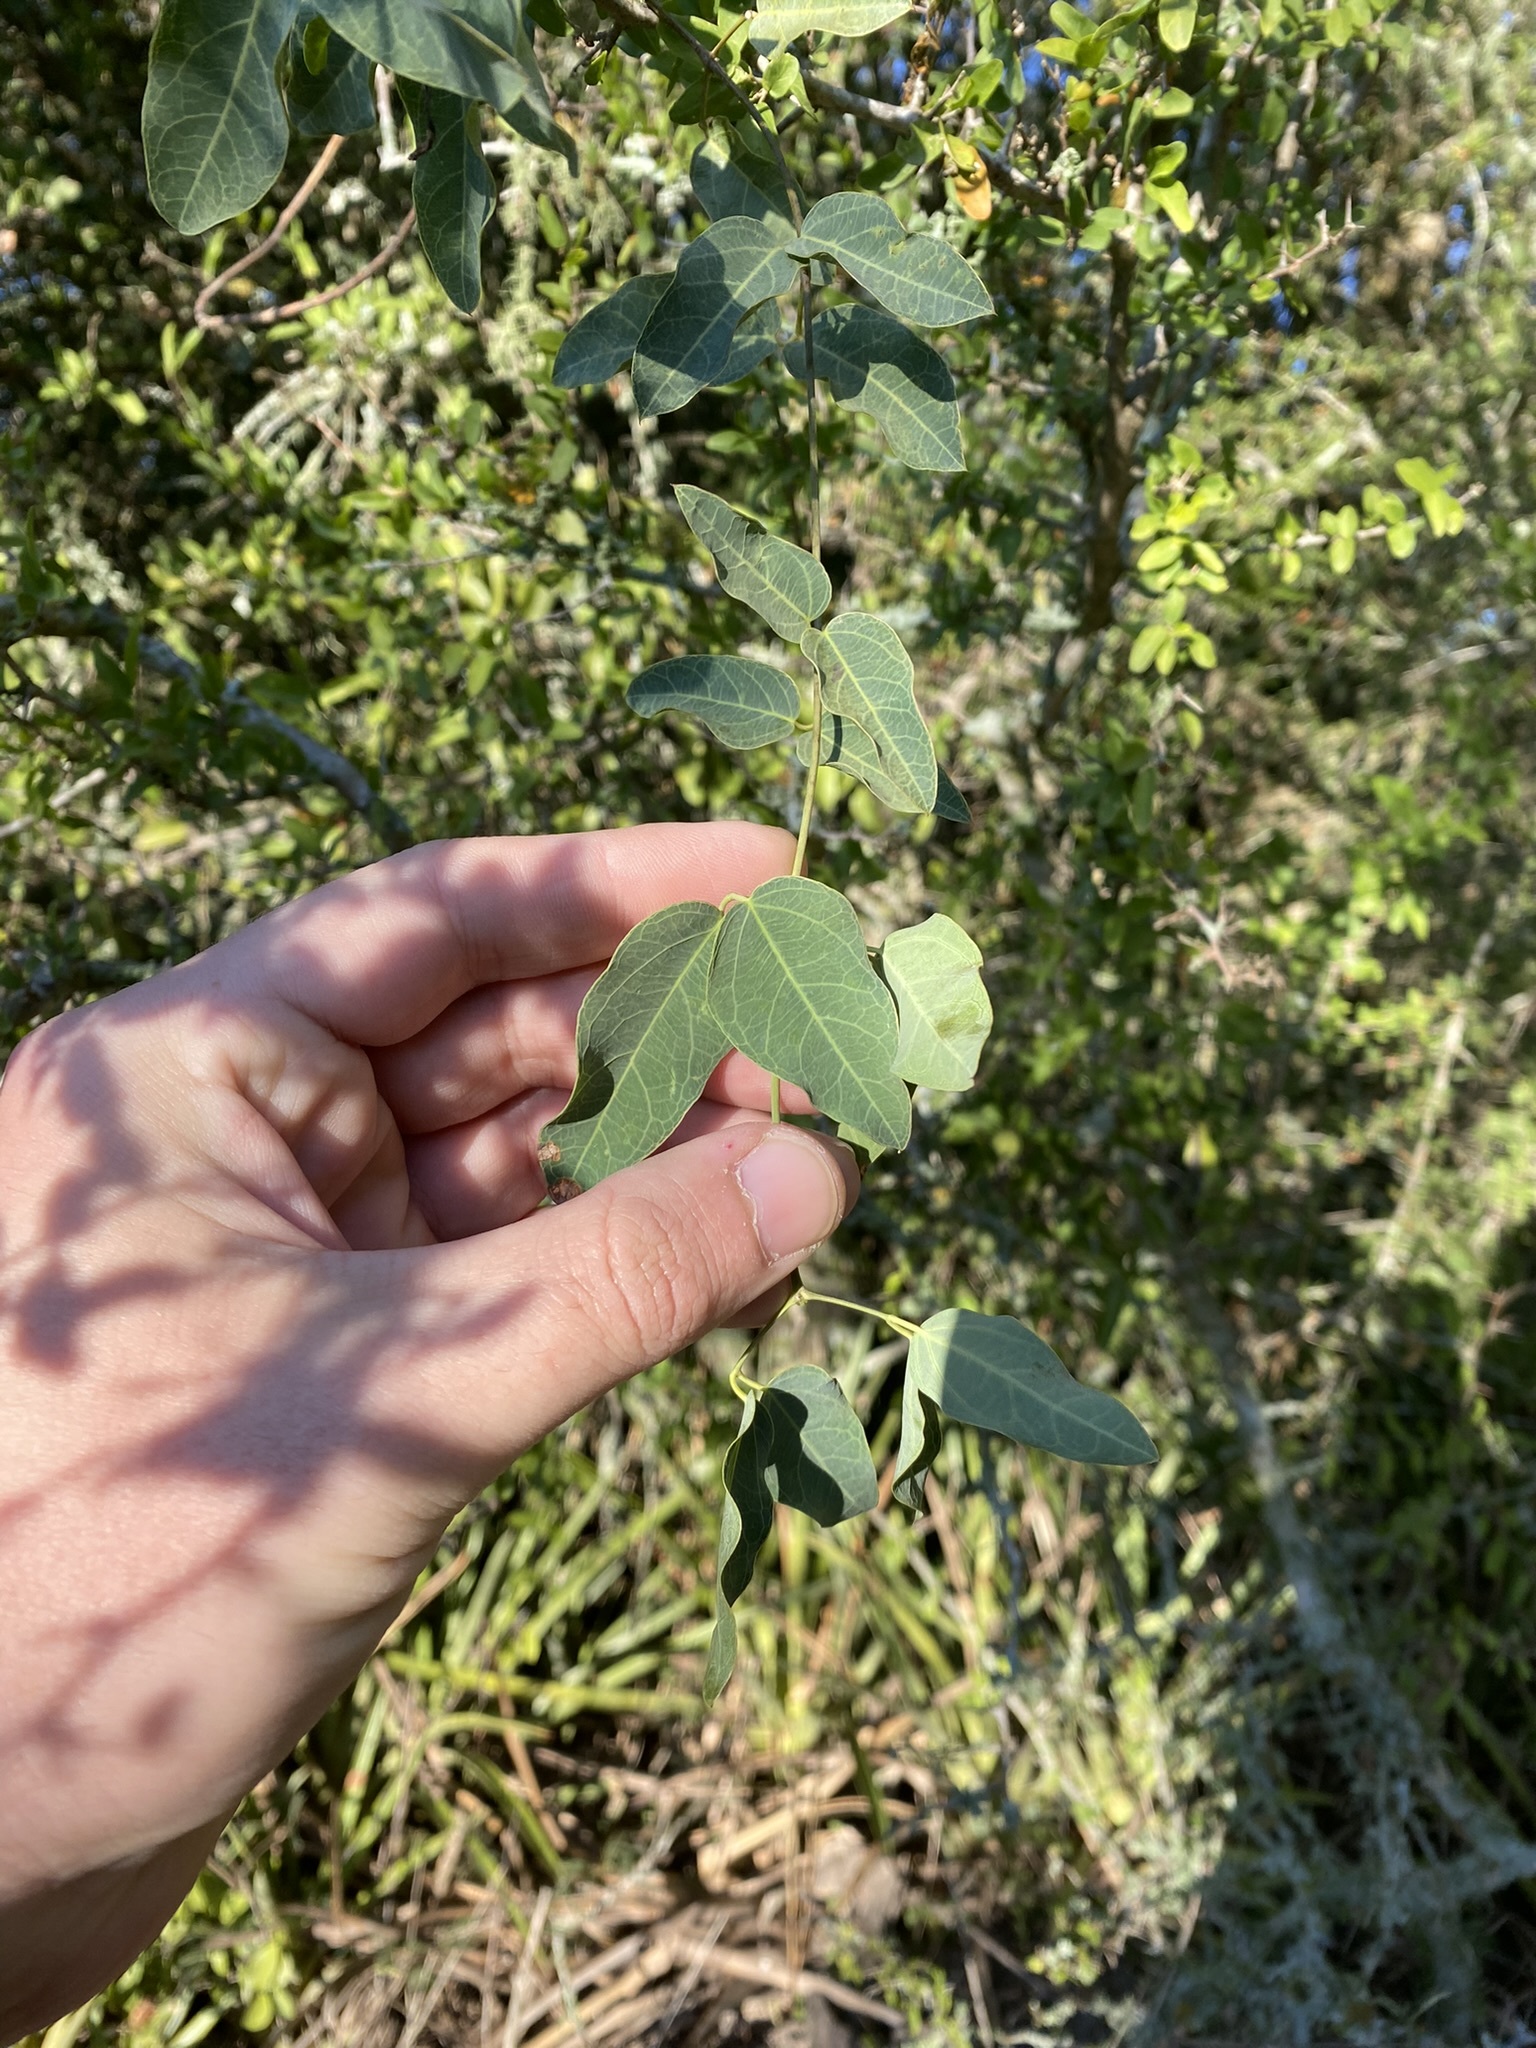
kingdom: Plantae
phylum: Tracheophyta
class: Magnoliopsida
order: Lamiales
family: Bignoniaceae
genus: Dolichandra
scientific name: Dolichandra cynanchoides
